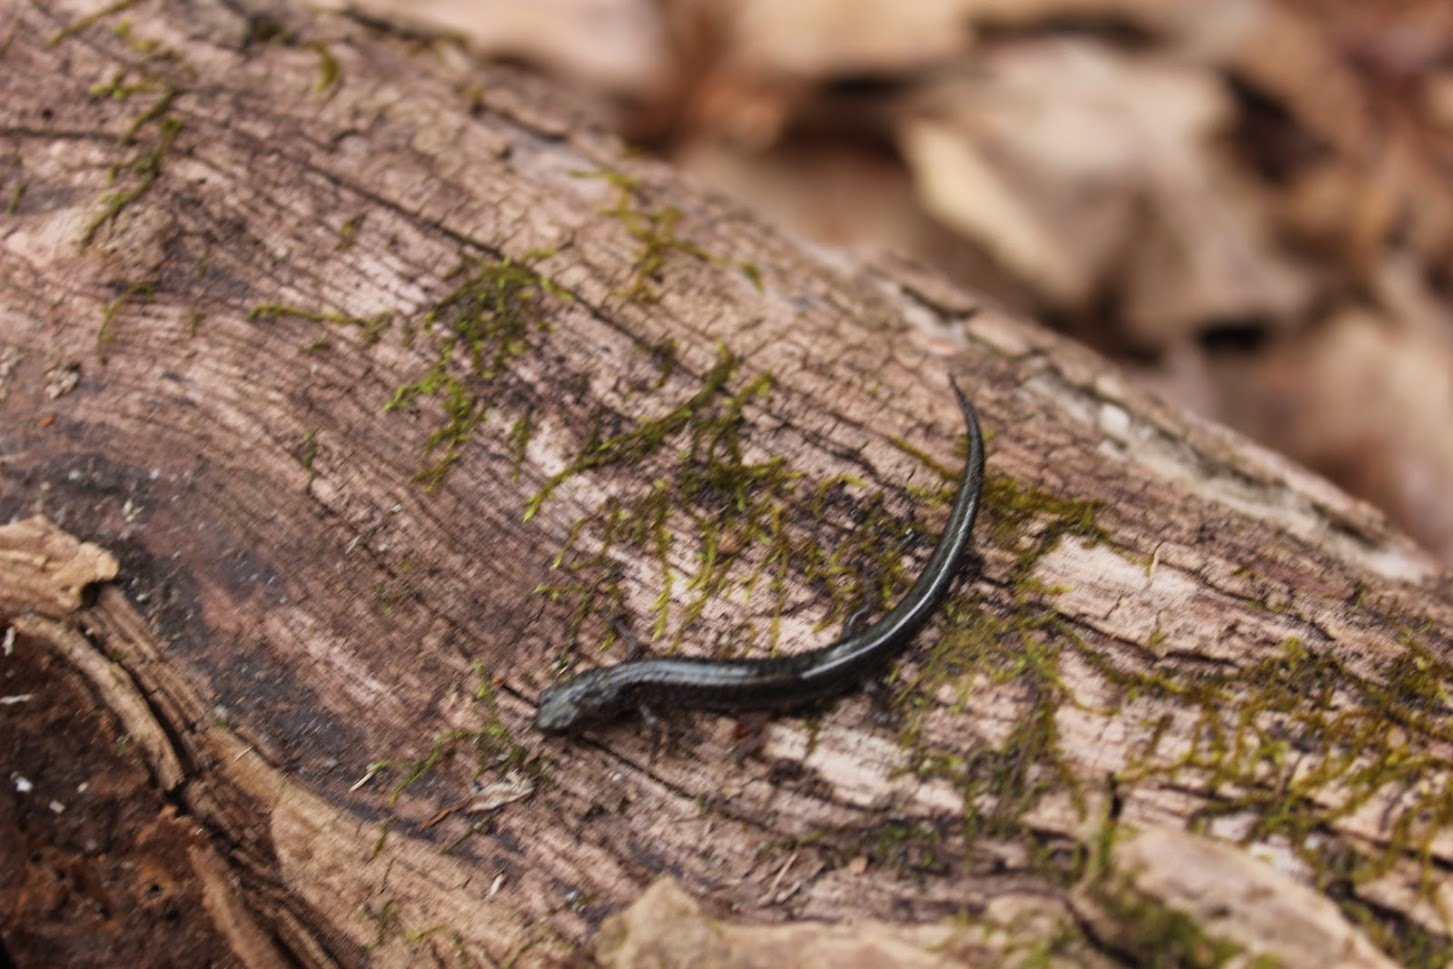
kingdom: Animalia
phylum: Chordata
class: Amphibia
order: Caudata
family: Plethodontidae
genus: Plethodon
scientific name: Plethodon cinereus
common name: Redback salamander
